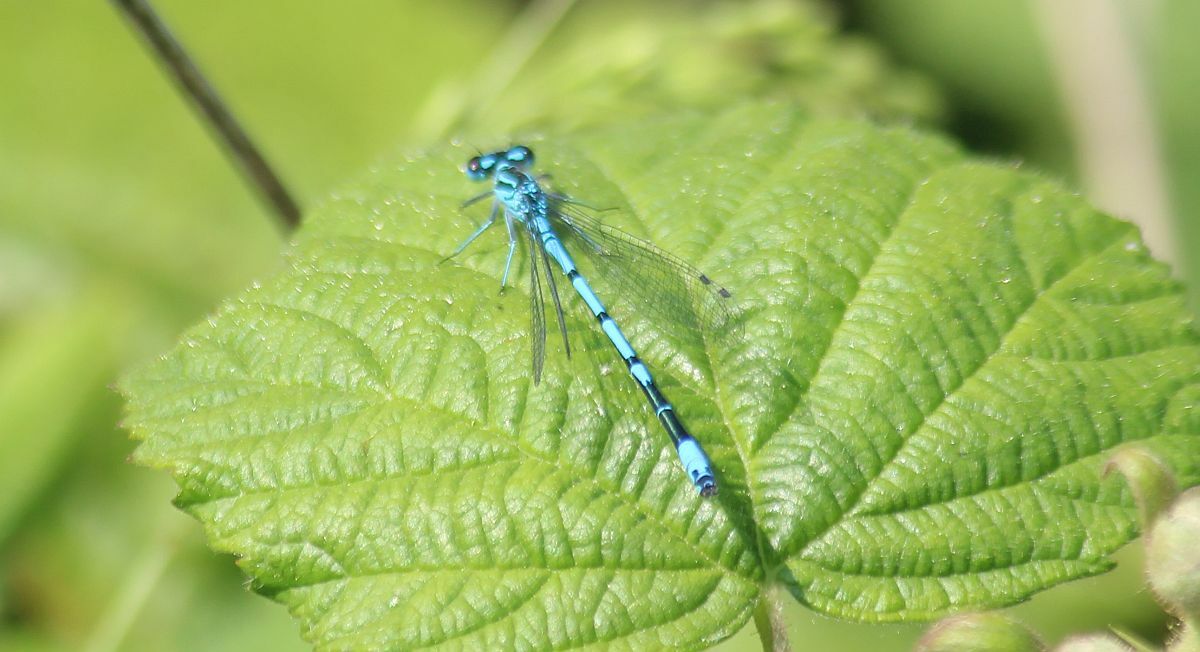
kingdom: Animalia
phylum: Arthropoda
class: Insecta
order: Odonata
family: Coenagrionidae
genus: Coenagrion
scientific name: Coenagrion puella
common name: Azure damselfly
